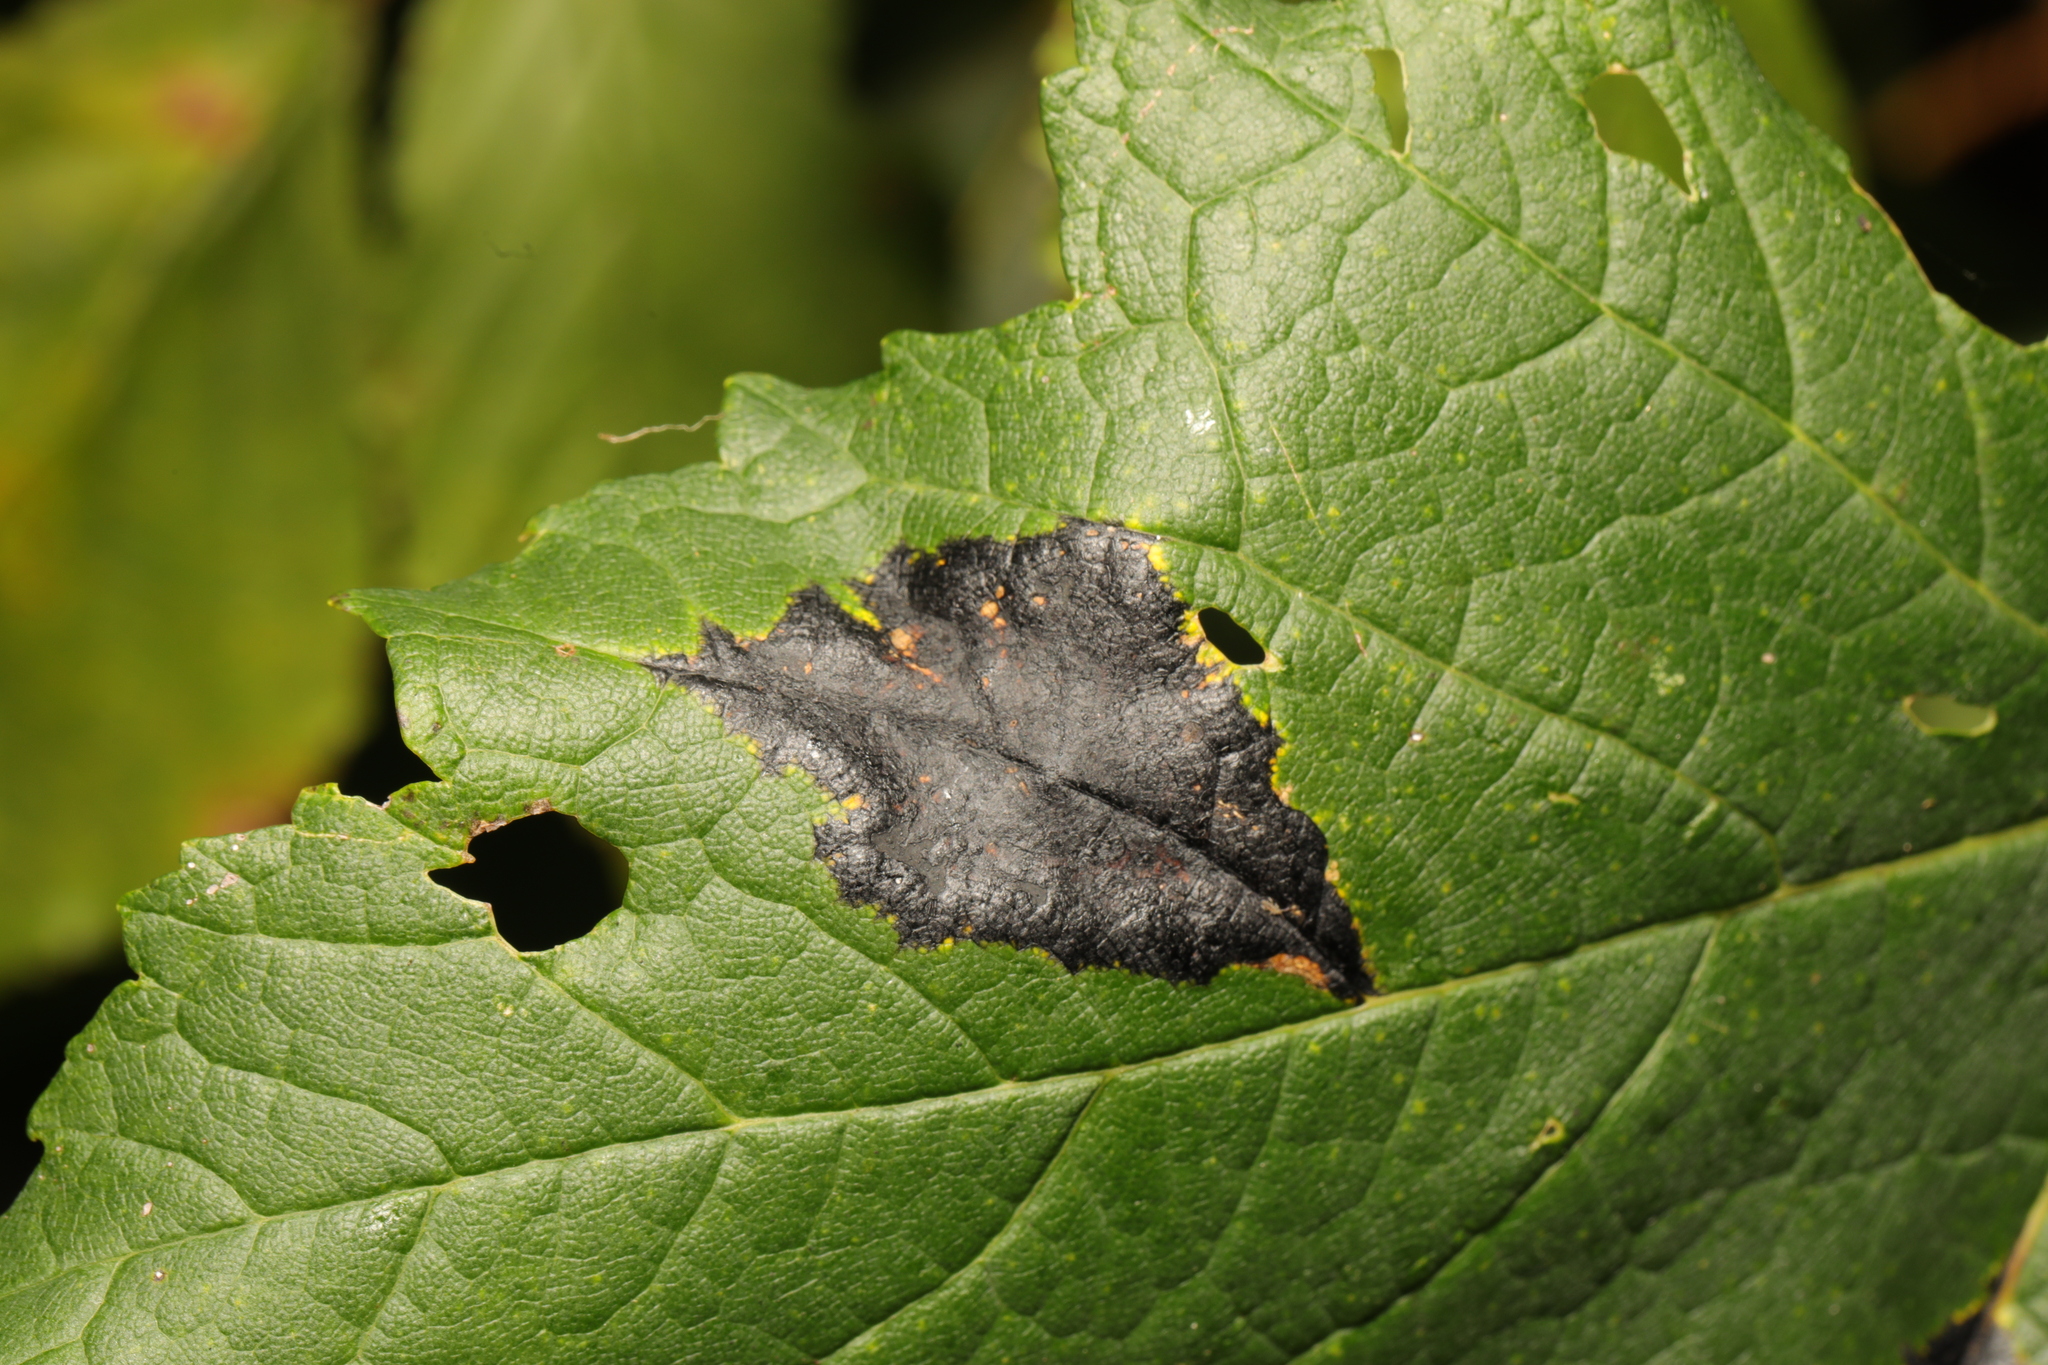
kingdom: Fungi
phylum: Ascomycota
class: Leotiomycetes
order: Rhytismatales
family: Rhytismataceae
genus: Rhytisma
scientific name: Rhytisma acerinum
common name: European tar spot
